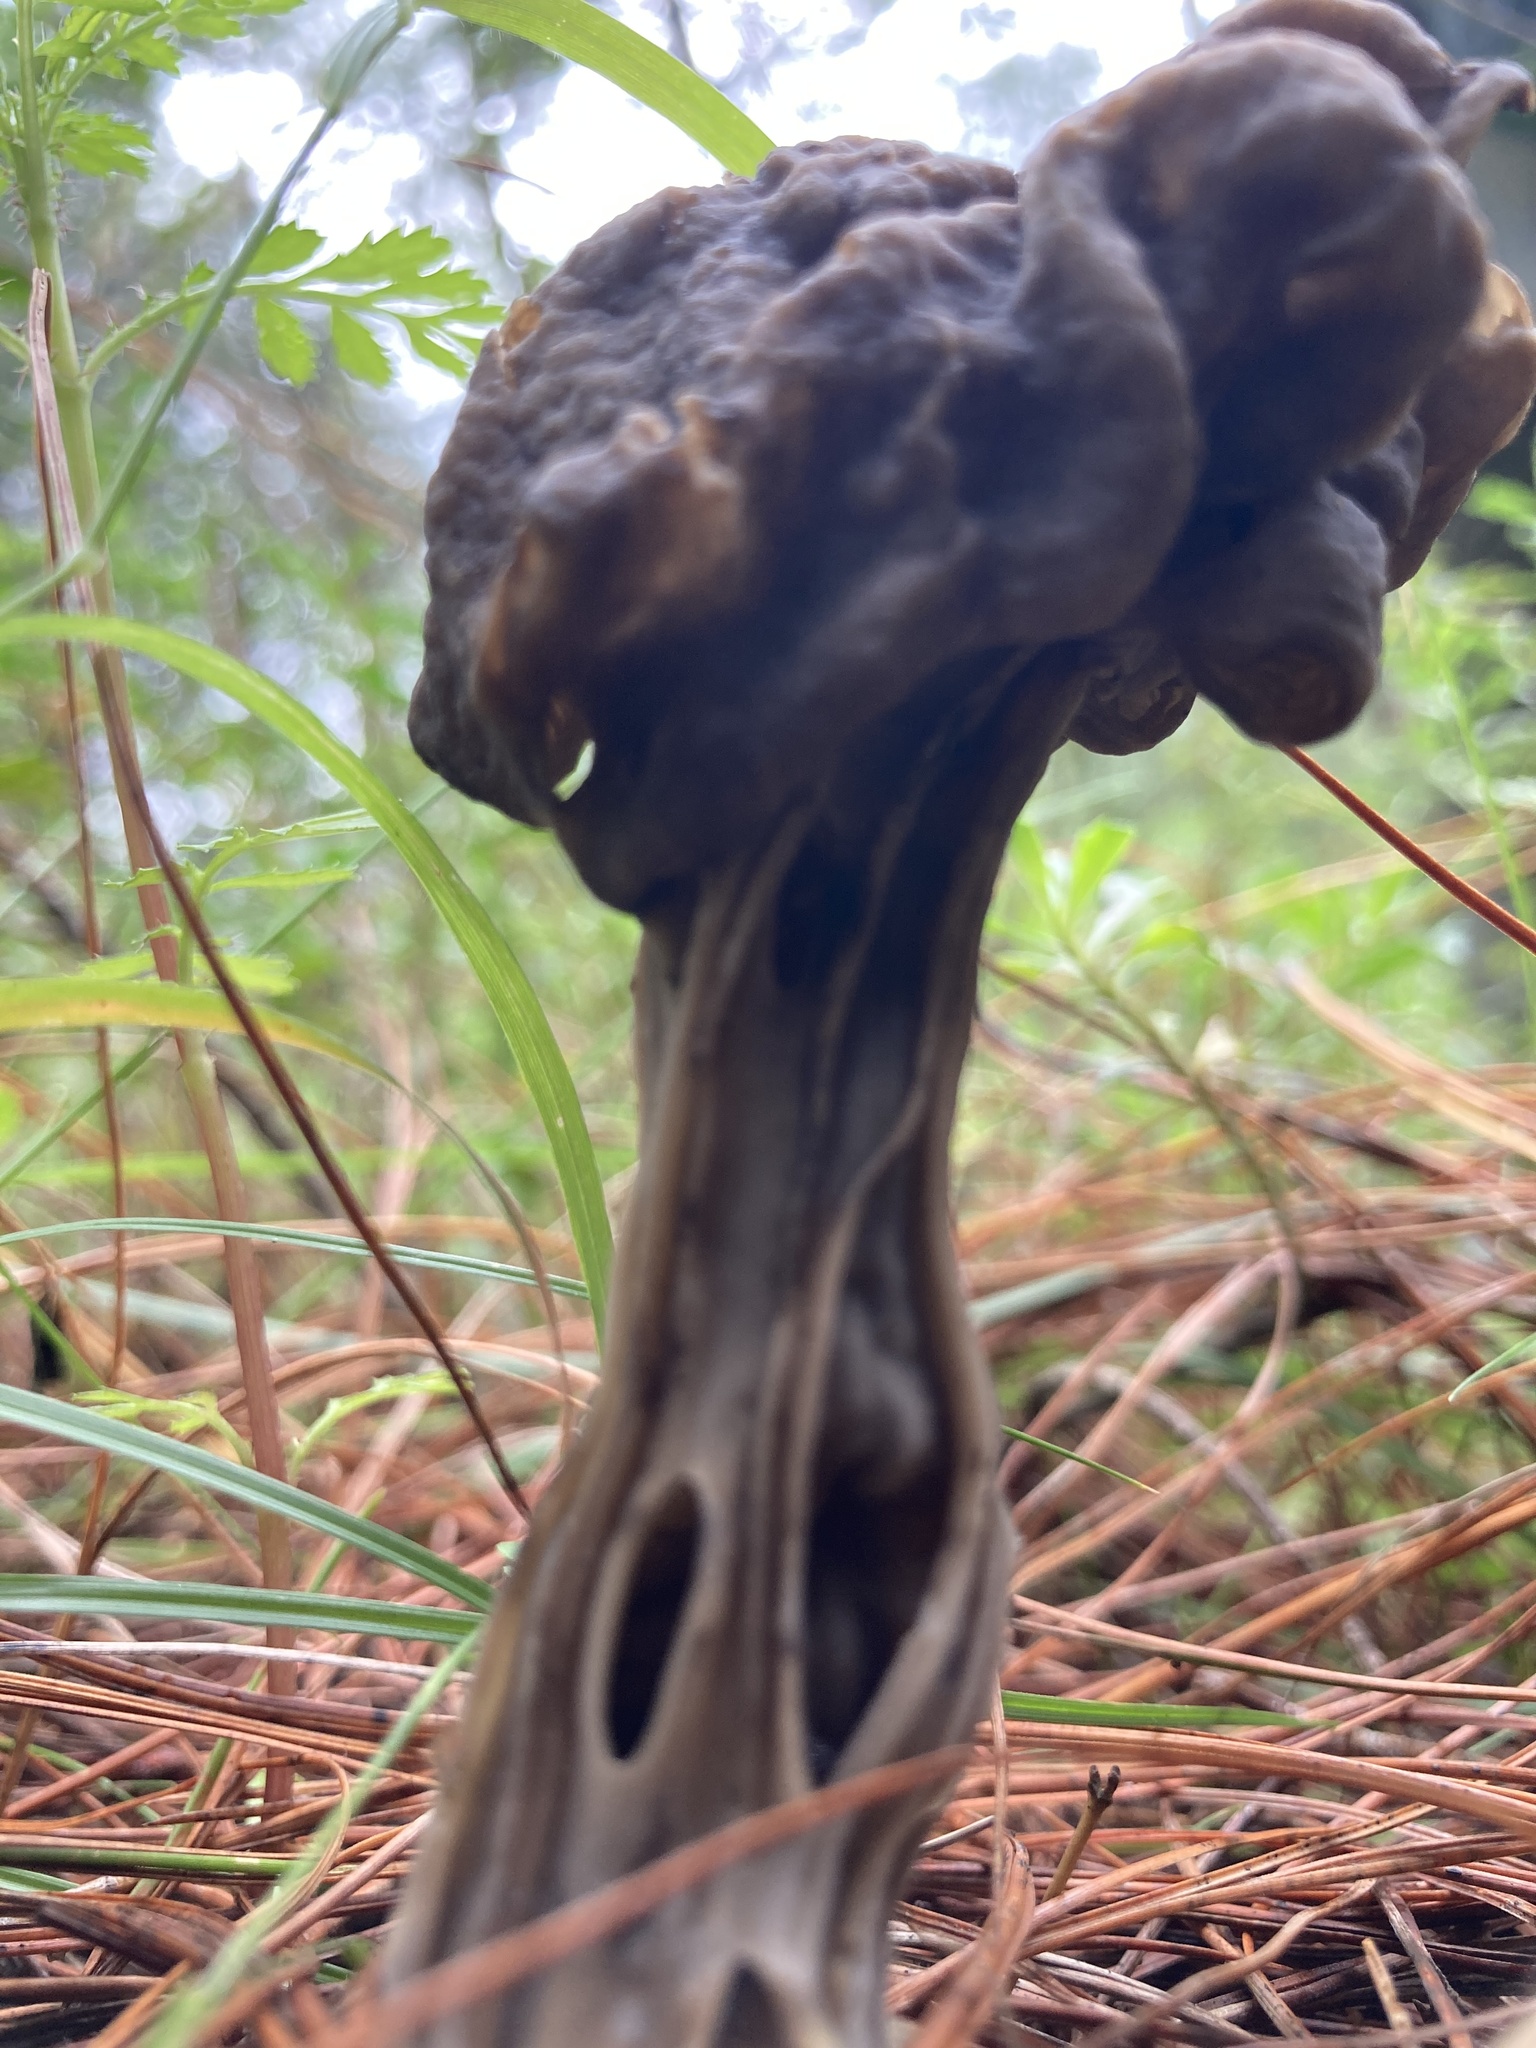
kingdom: Fungi
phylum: Ascomycota
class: Pezizomycetes
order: Pezizales
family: Helvellaceae
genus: Helvella
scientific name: Helvella lacunosa
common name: Elfin saddle
